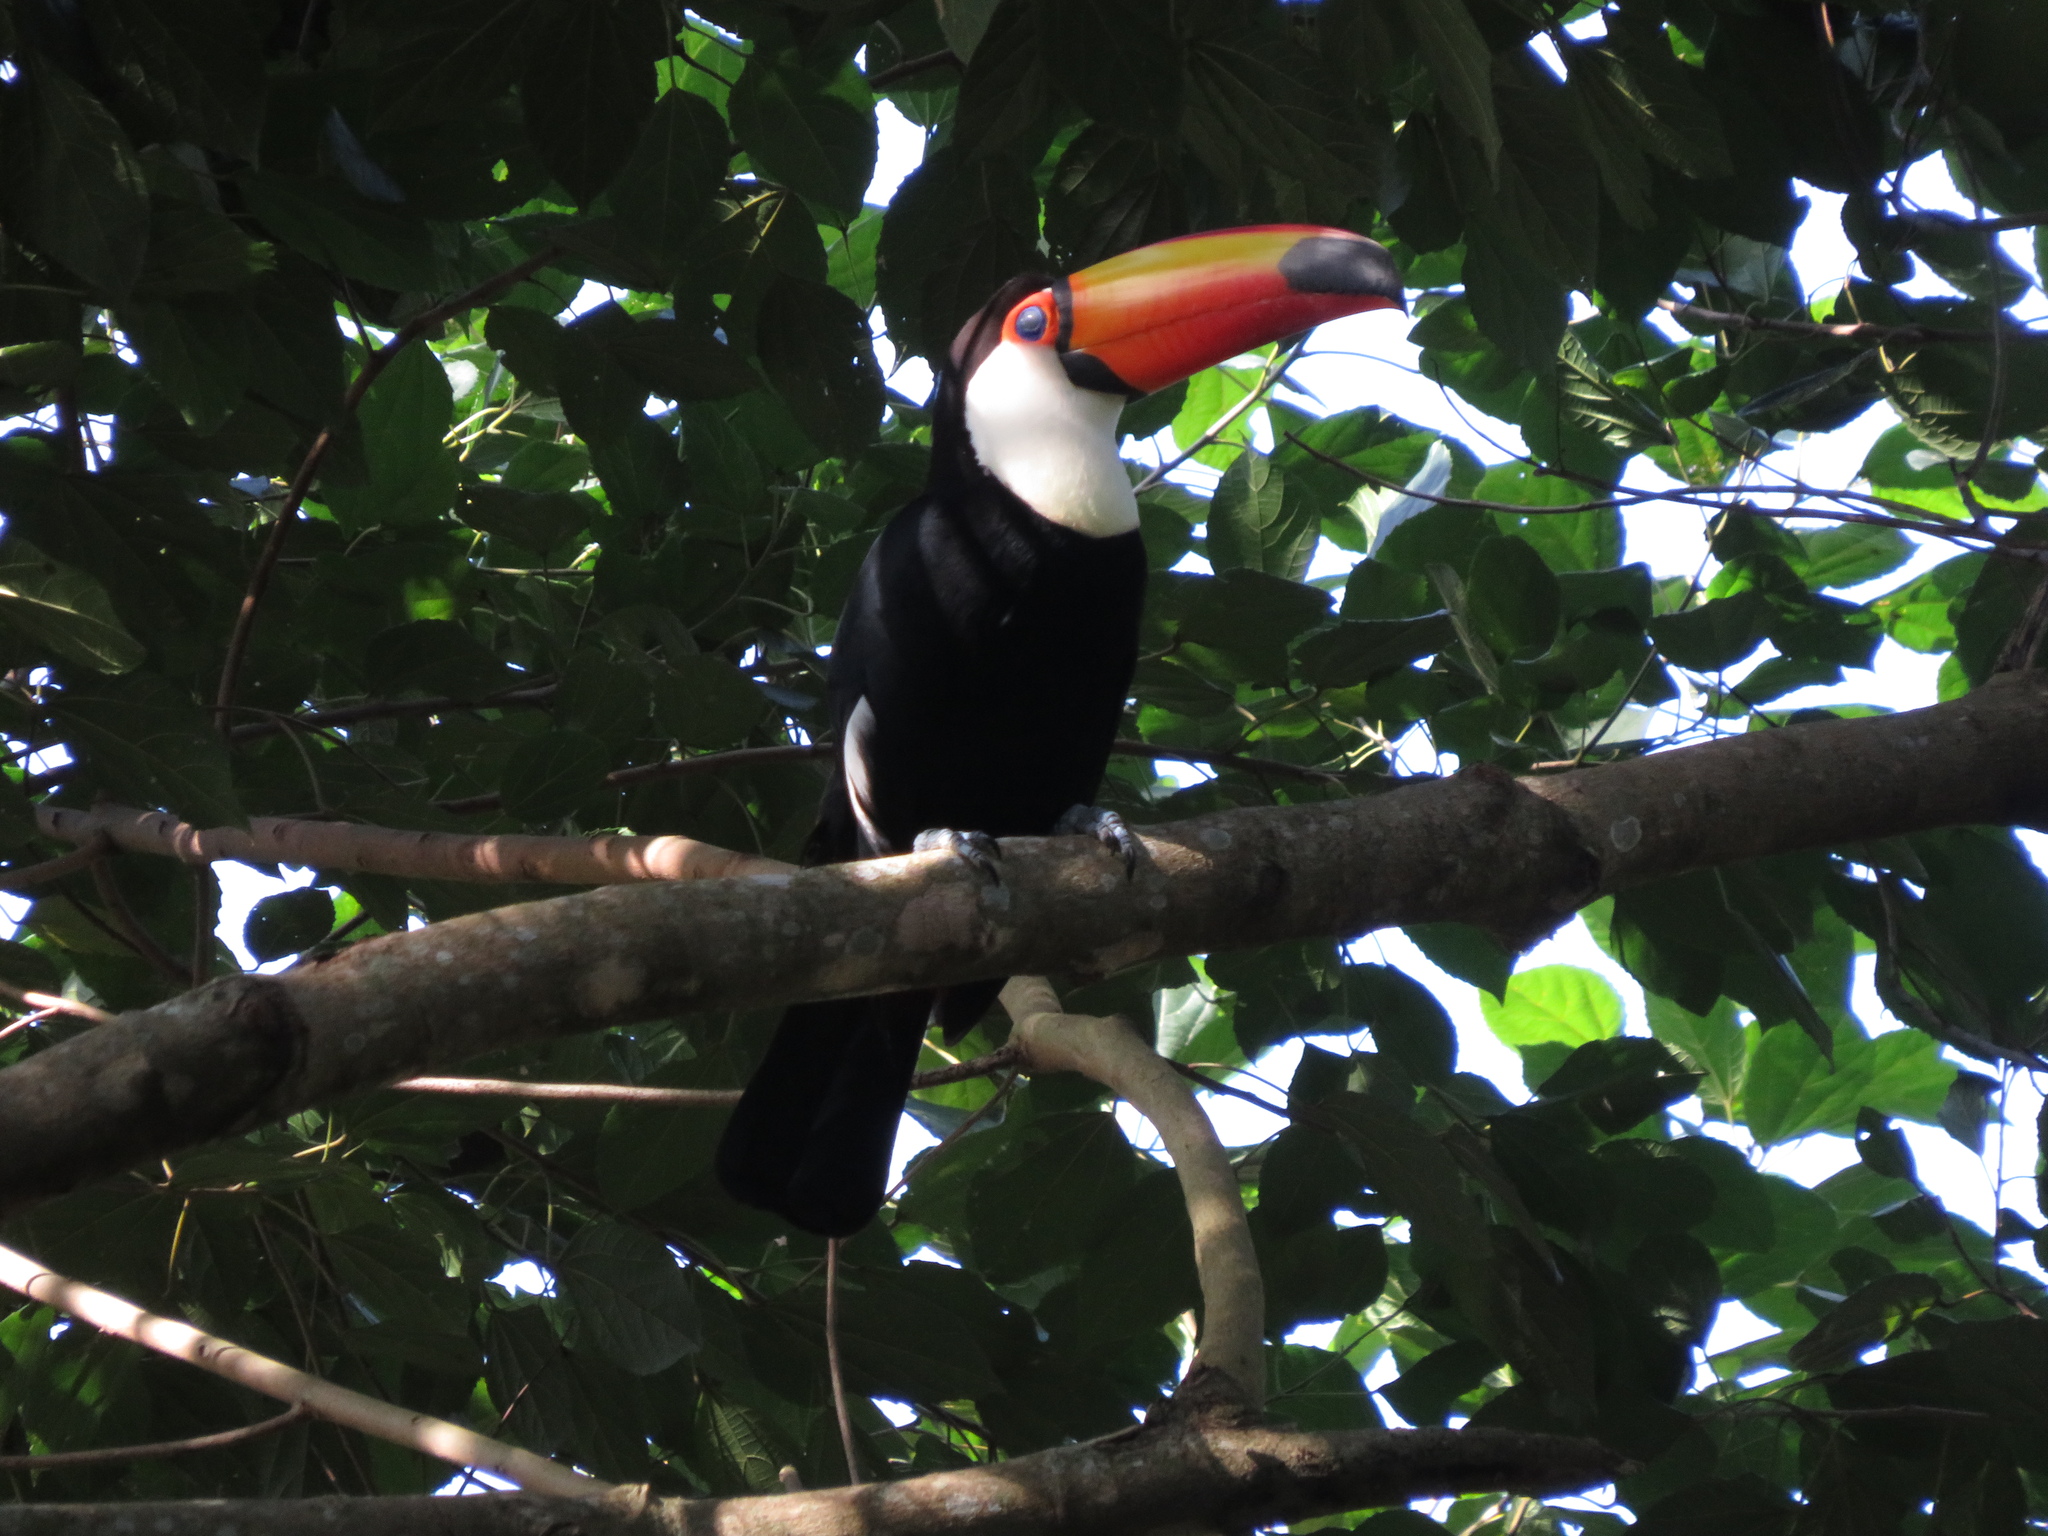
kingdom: Animalia
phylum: Chordata
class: Aves
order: Piciformes
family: Ramphastidae
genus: Ramphastos
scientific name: Ramphastos toco
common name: Toco toucan
